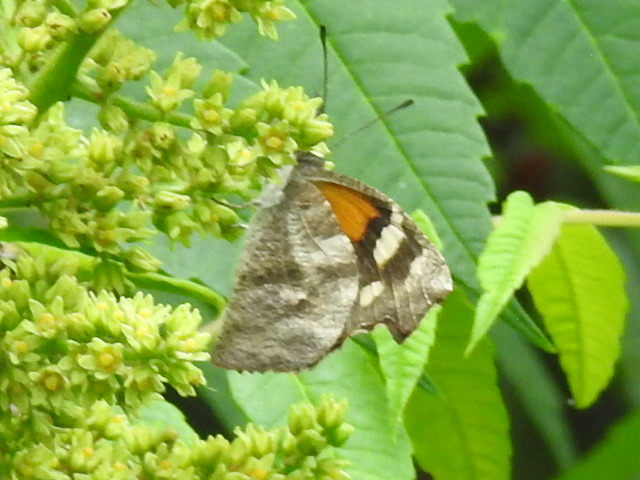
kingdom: Animalia
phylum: Arthropoda
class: Insecta
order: Lepidoptera
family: Nymphalidae
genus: Libytheana
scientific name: Libytheana carinenta
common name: American snout
